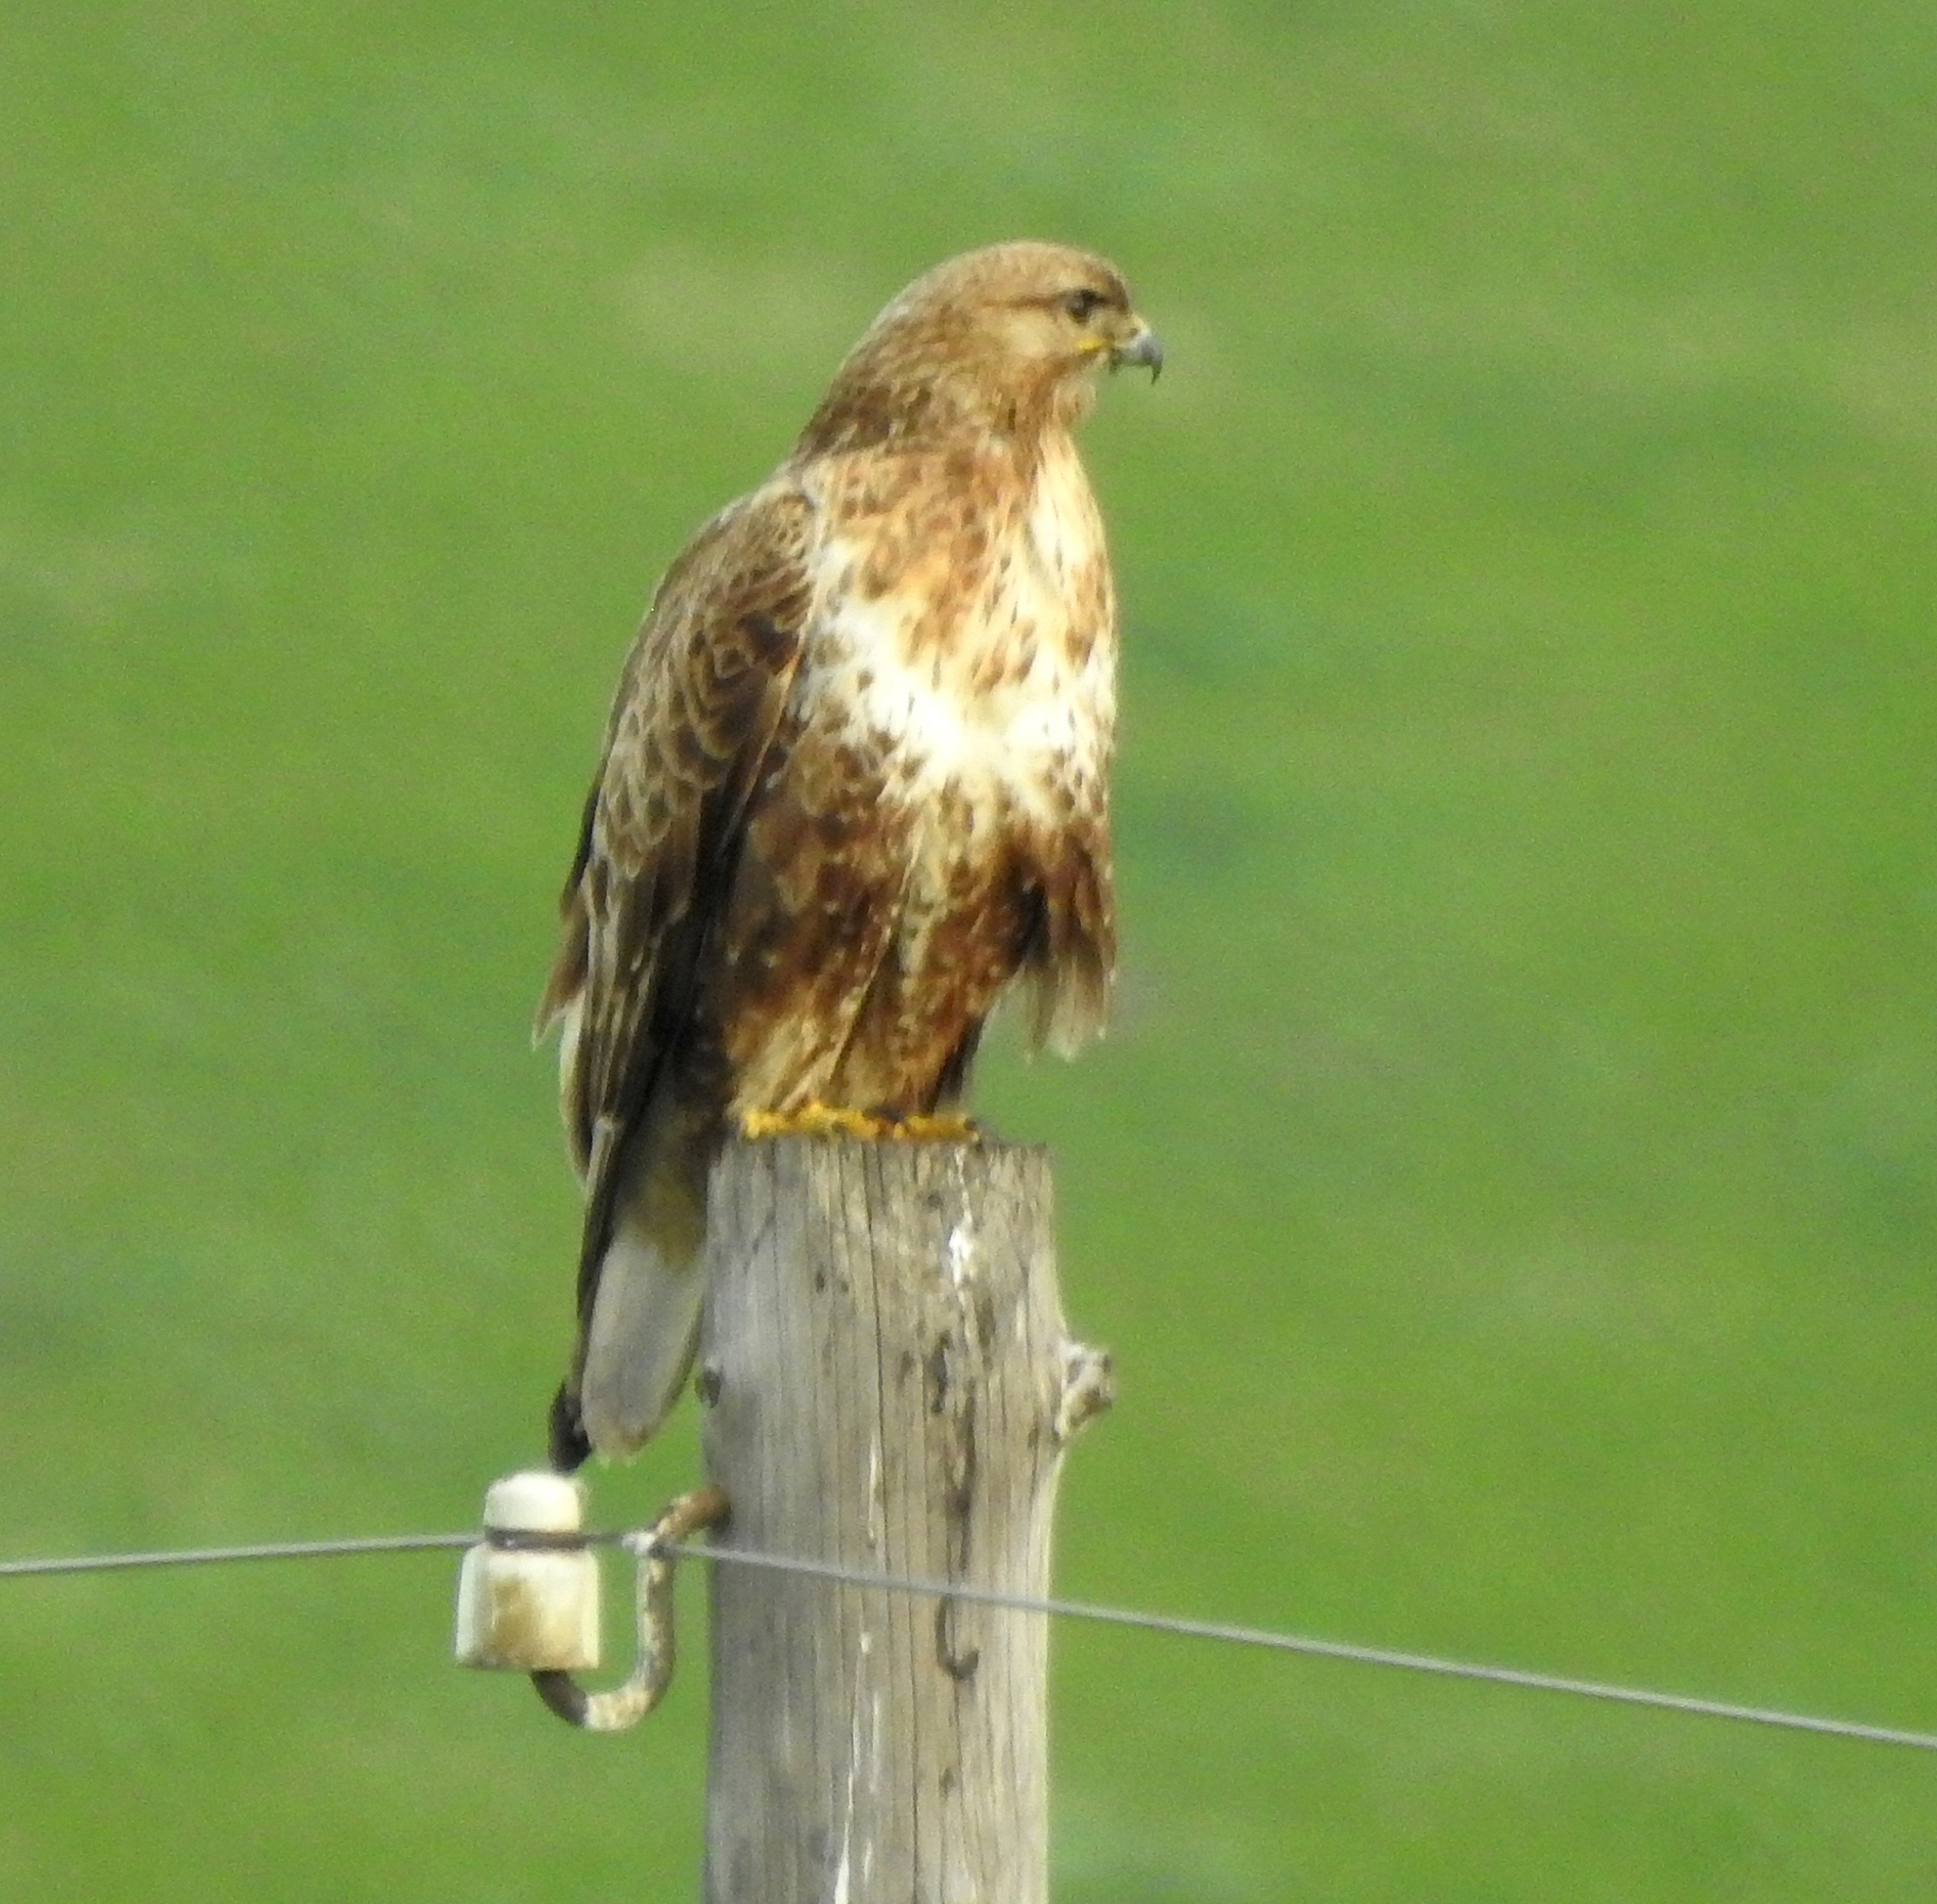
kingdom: Animalia
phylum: Chordata
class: Aves
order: Accipitriformes
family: Accipitridae
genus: Buteo
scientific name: Buteo hemilasius
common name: Upland buzzard
